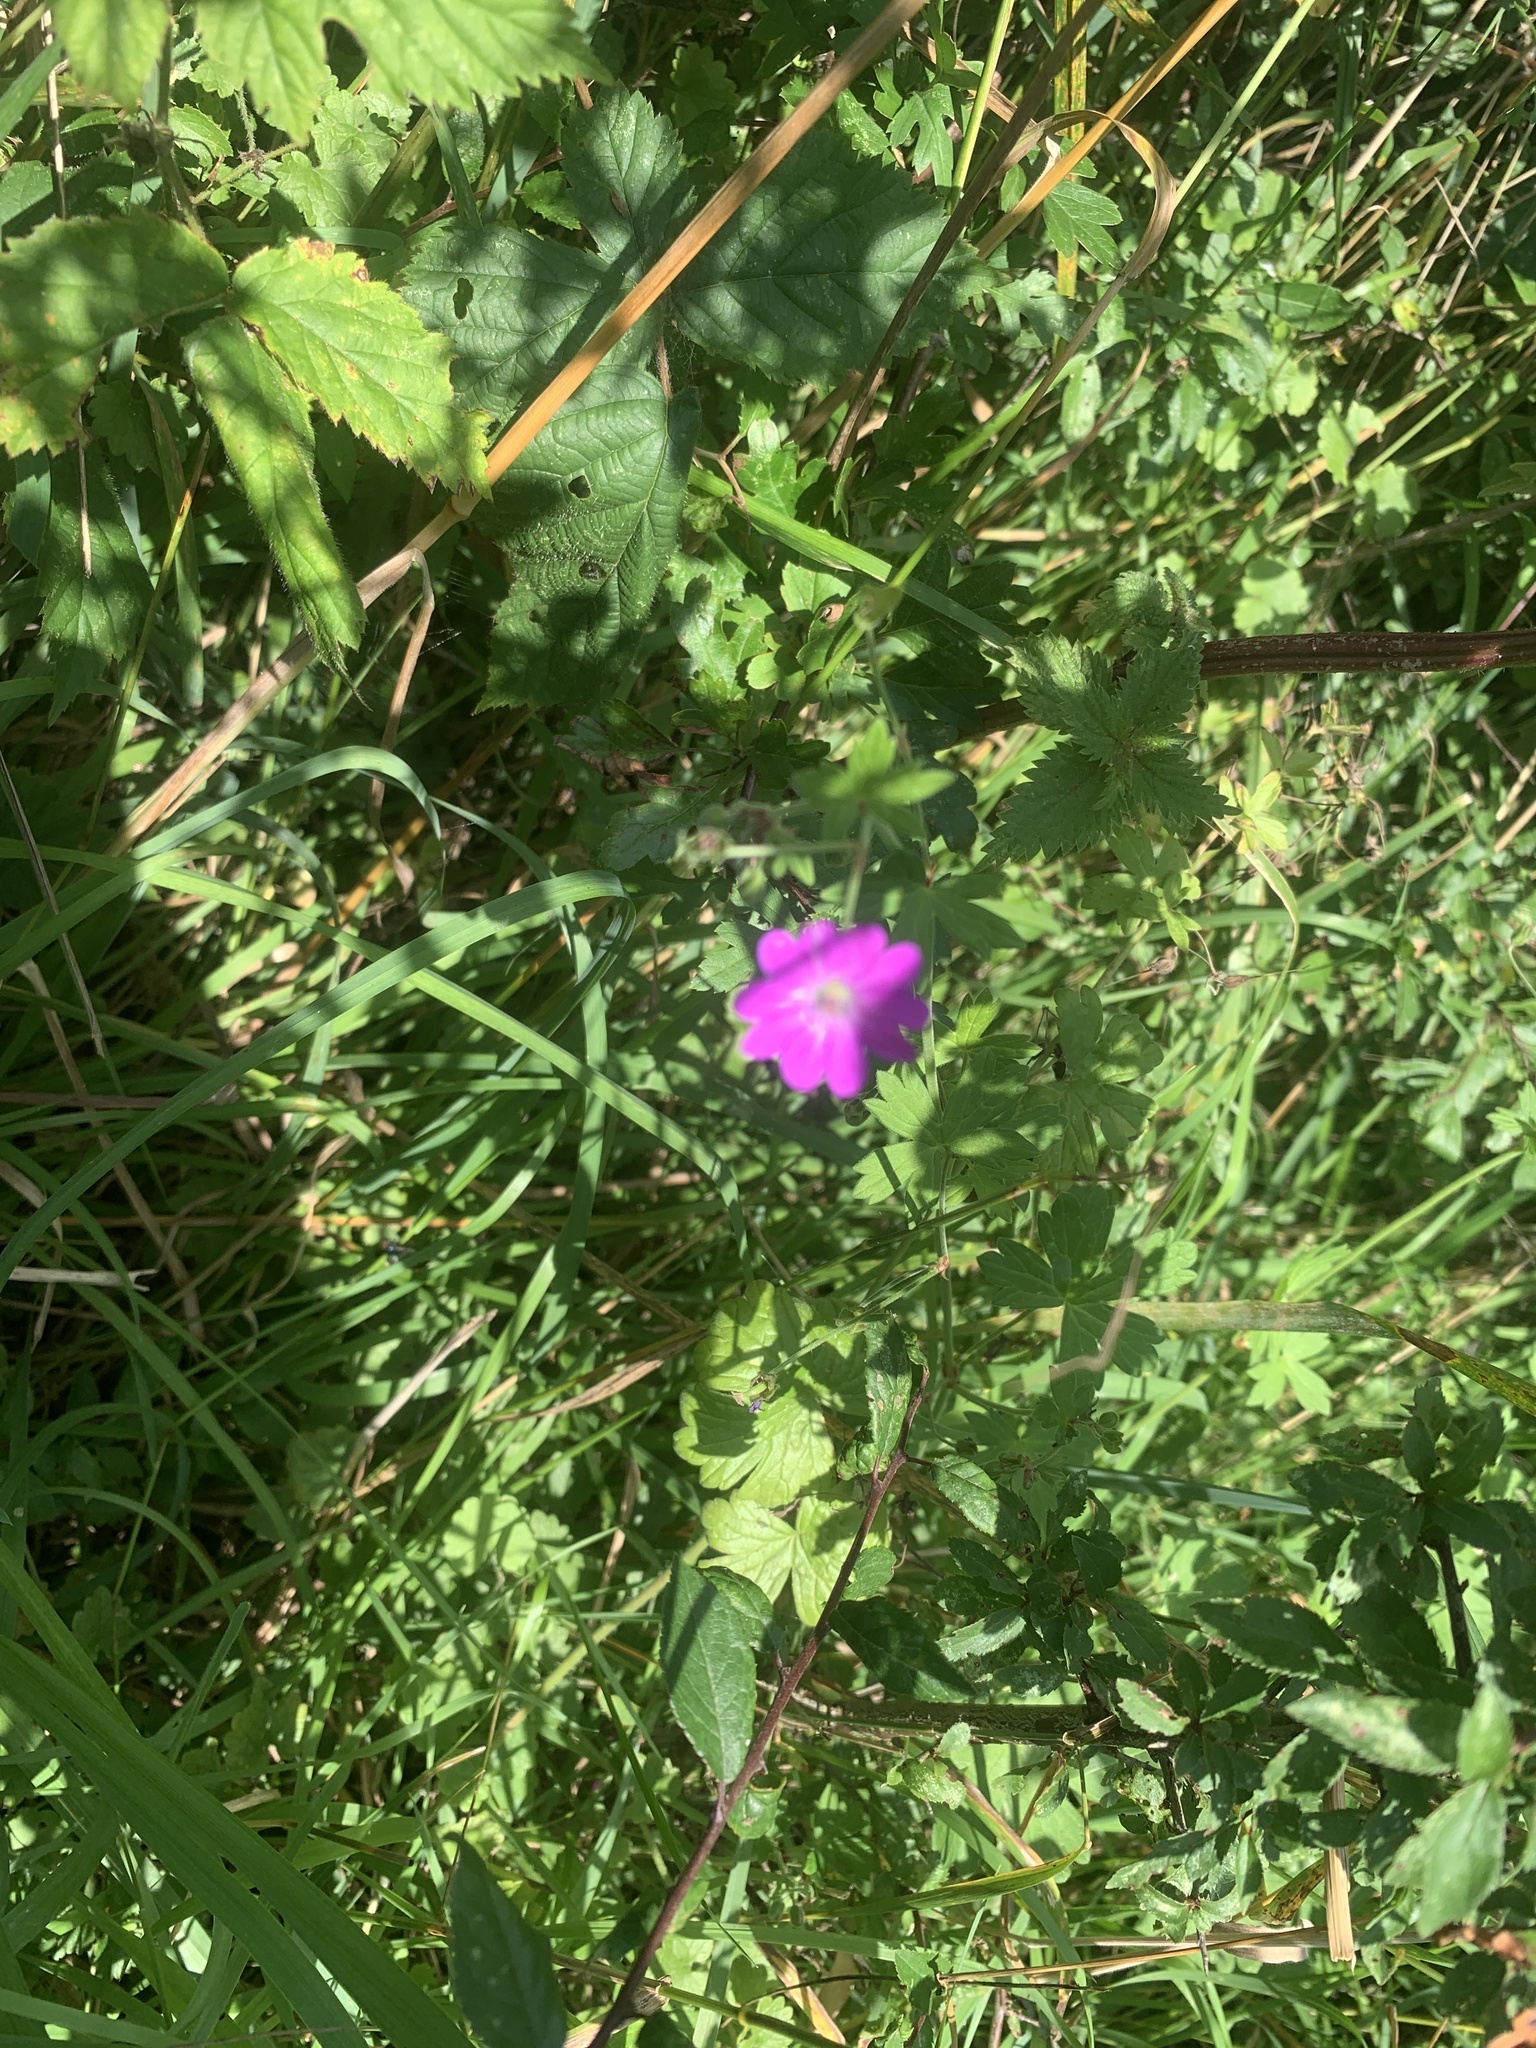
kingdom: Plantae
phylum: Tracheophyta
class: Magnoliopsida
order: Geraniales
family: Geraniaceae
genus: Geranium
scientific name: Geranium dissectum
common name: Cut-leaved crane's-bill
